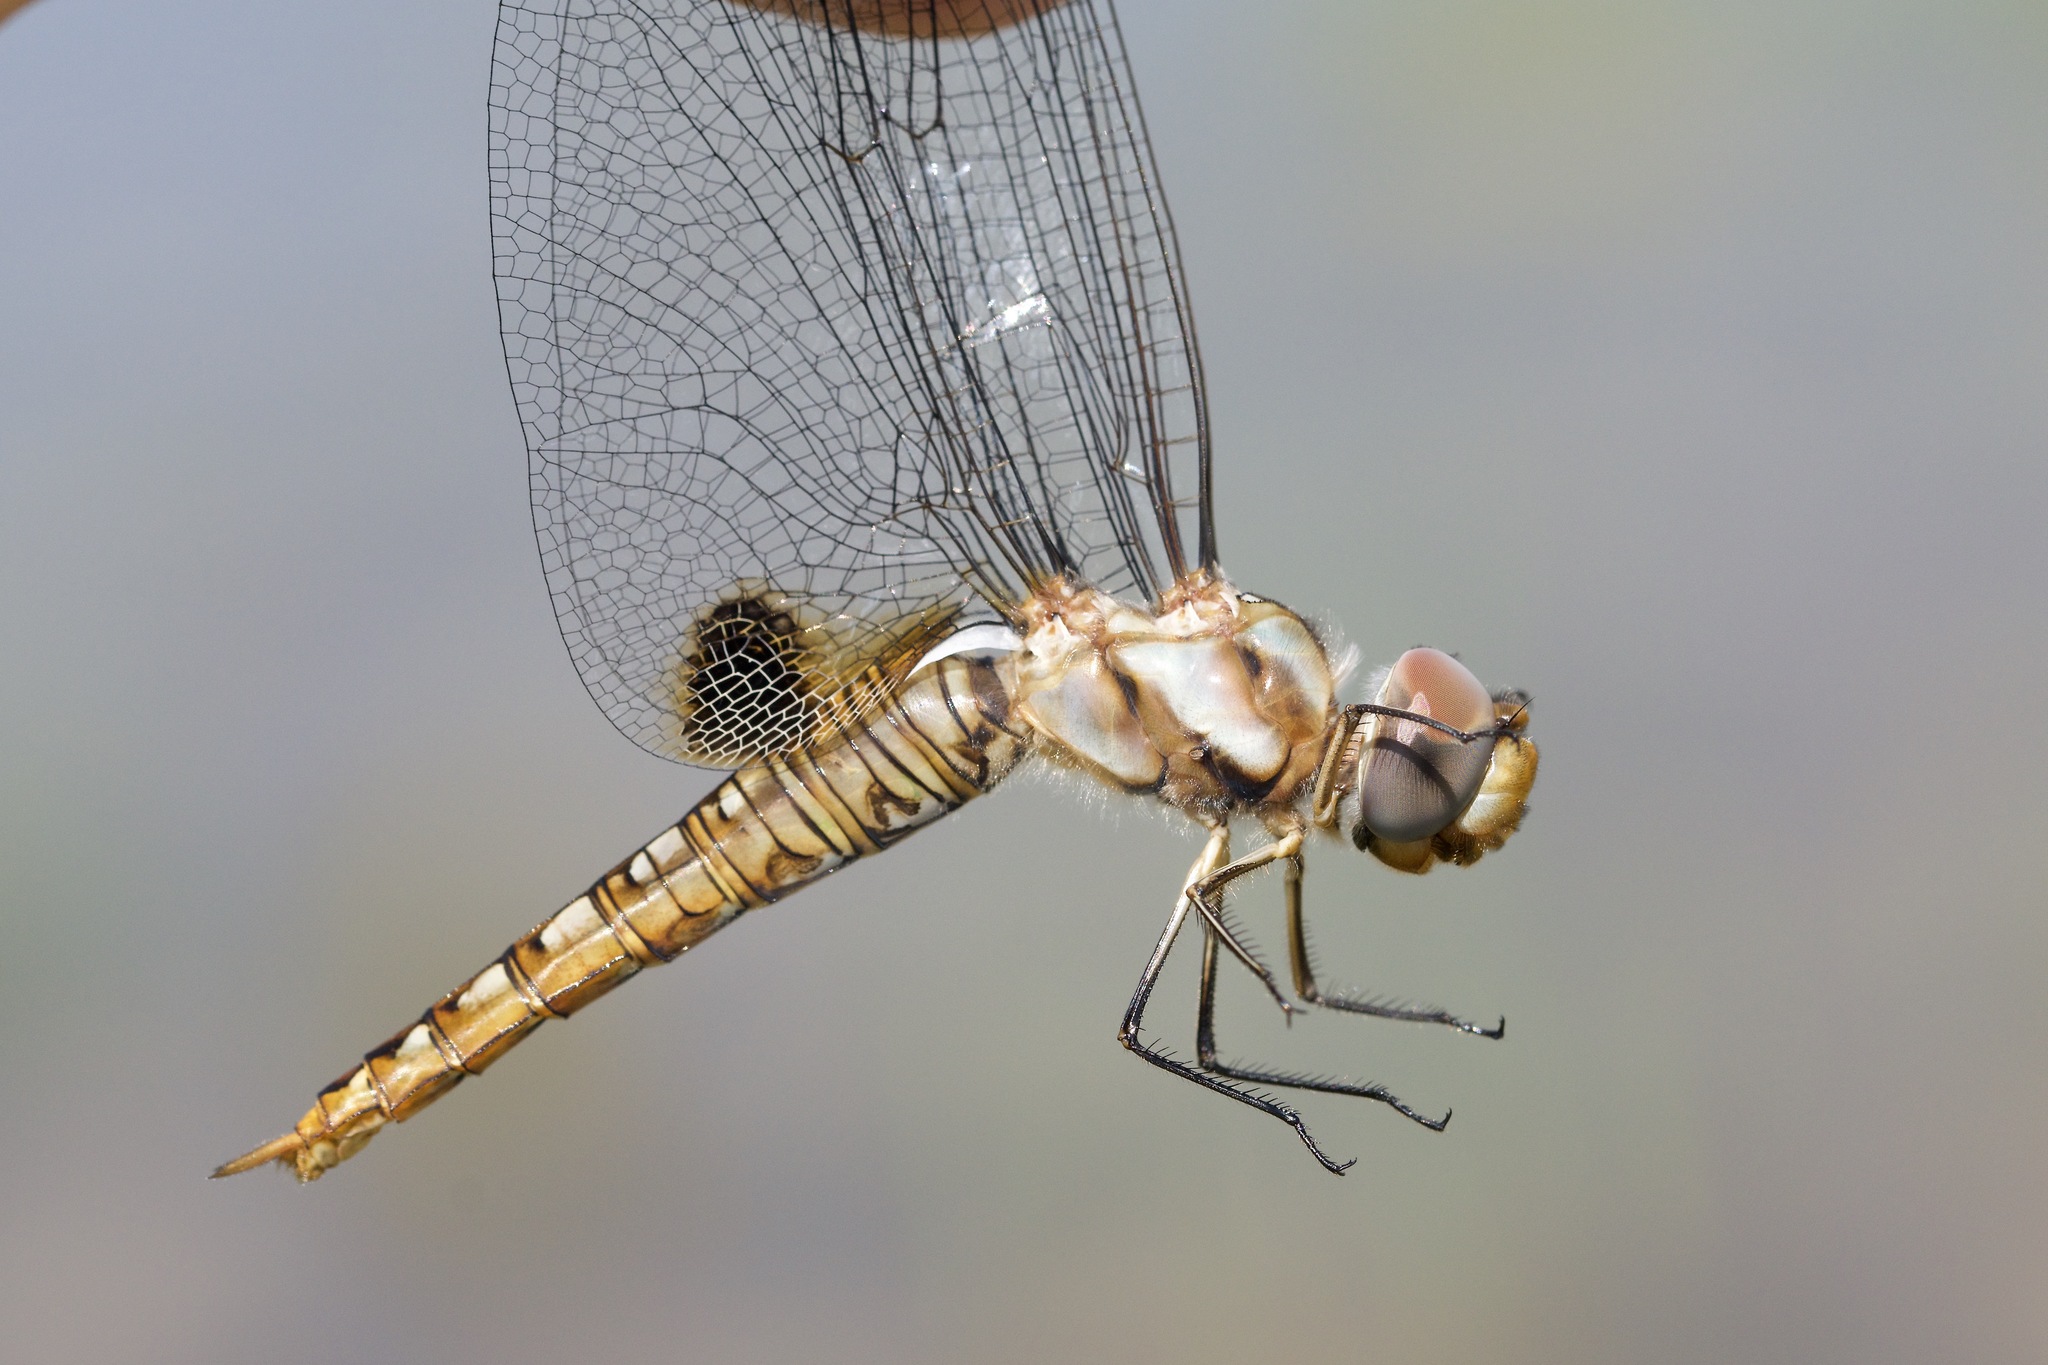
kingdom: Animalia
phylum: Arthropoda
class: Insecta
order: Odonata
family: Libellulidae
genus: Pantala
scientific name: Pantala hymenaea
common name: Spot-winged glider
